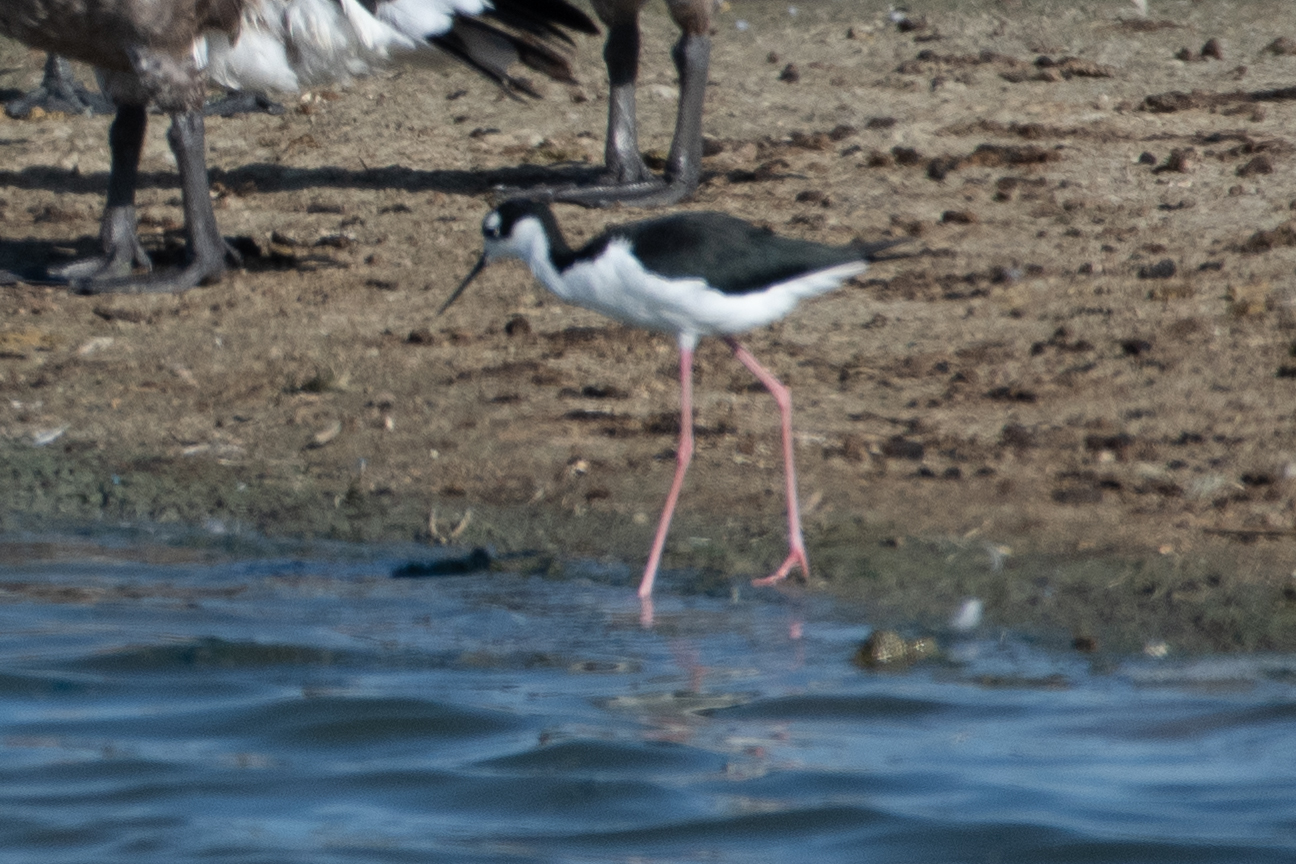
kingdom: Animalia
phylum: Chordata
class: Aves
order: Charadriiformes
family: Recurvirostridae
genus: Himantopus
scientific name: Himantopus mexicanus
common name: Black-necked stilt
